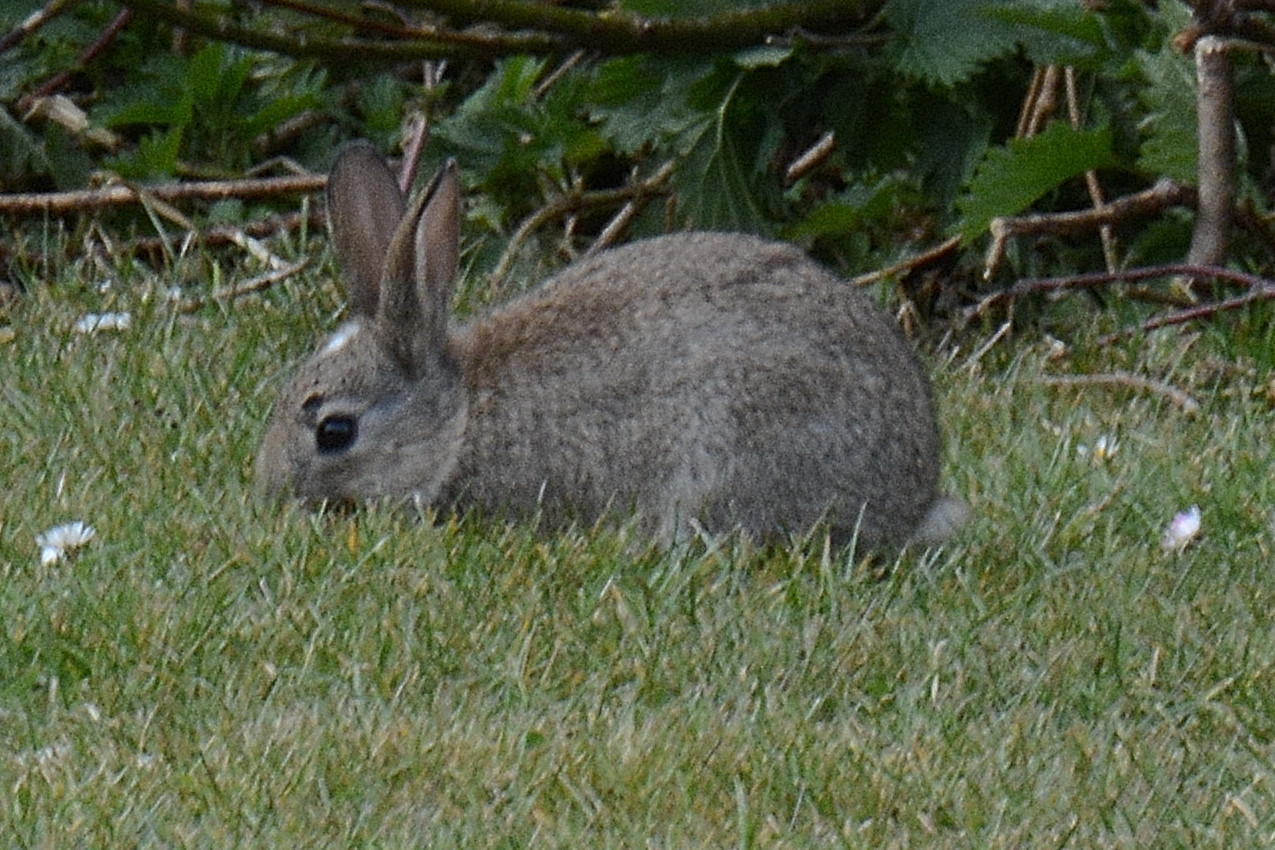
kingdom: Animalia
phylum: Chordata
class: Mammalia
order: Lagomorpha
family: Leporidae
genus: Oryctolagus
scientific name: Oryctolagus cuniculus
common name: European rabbit
